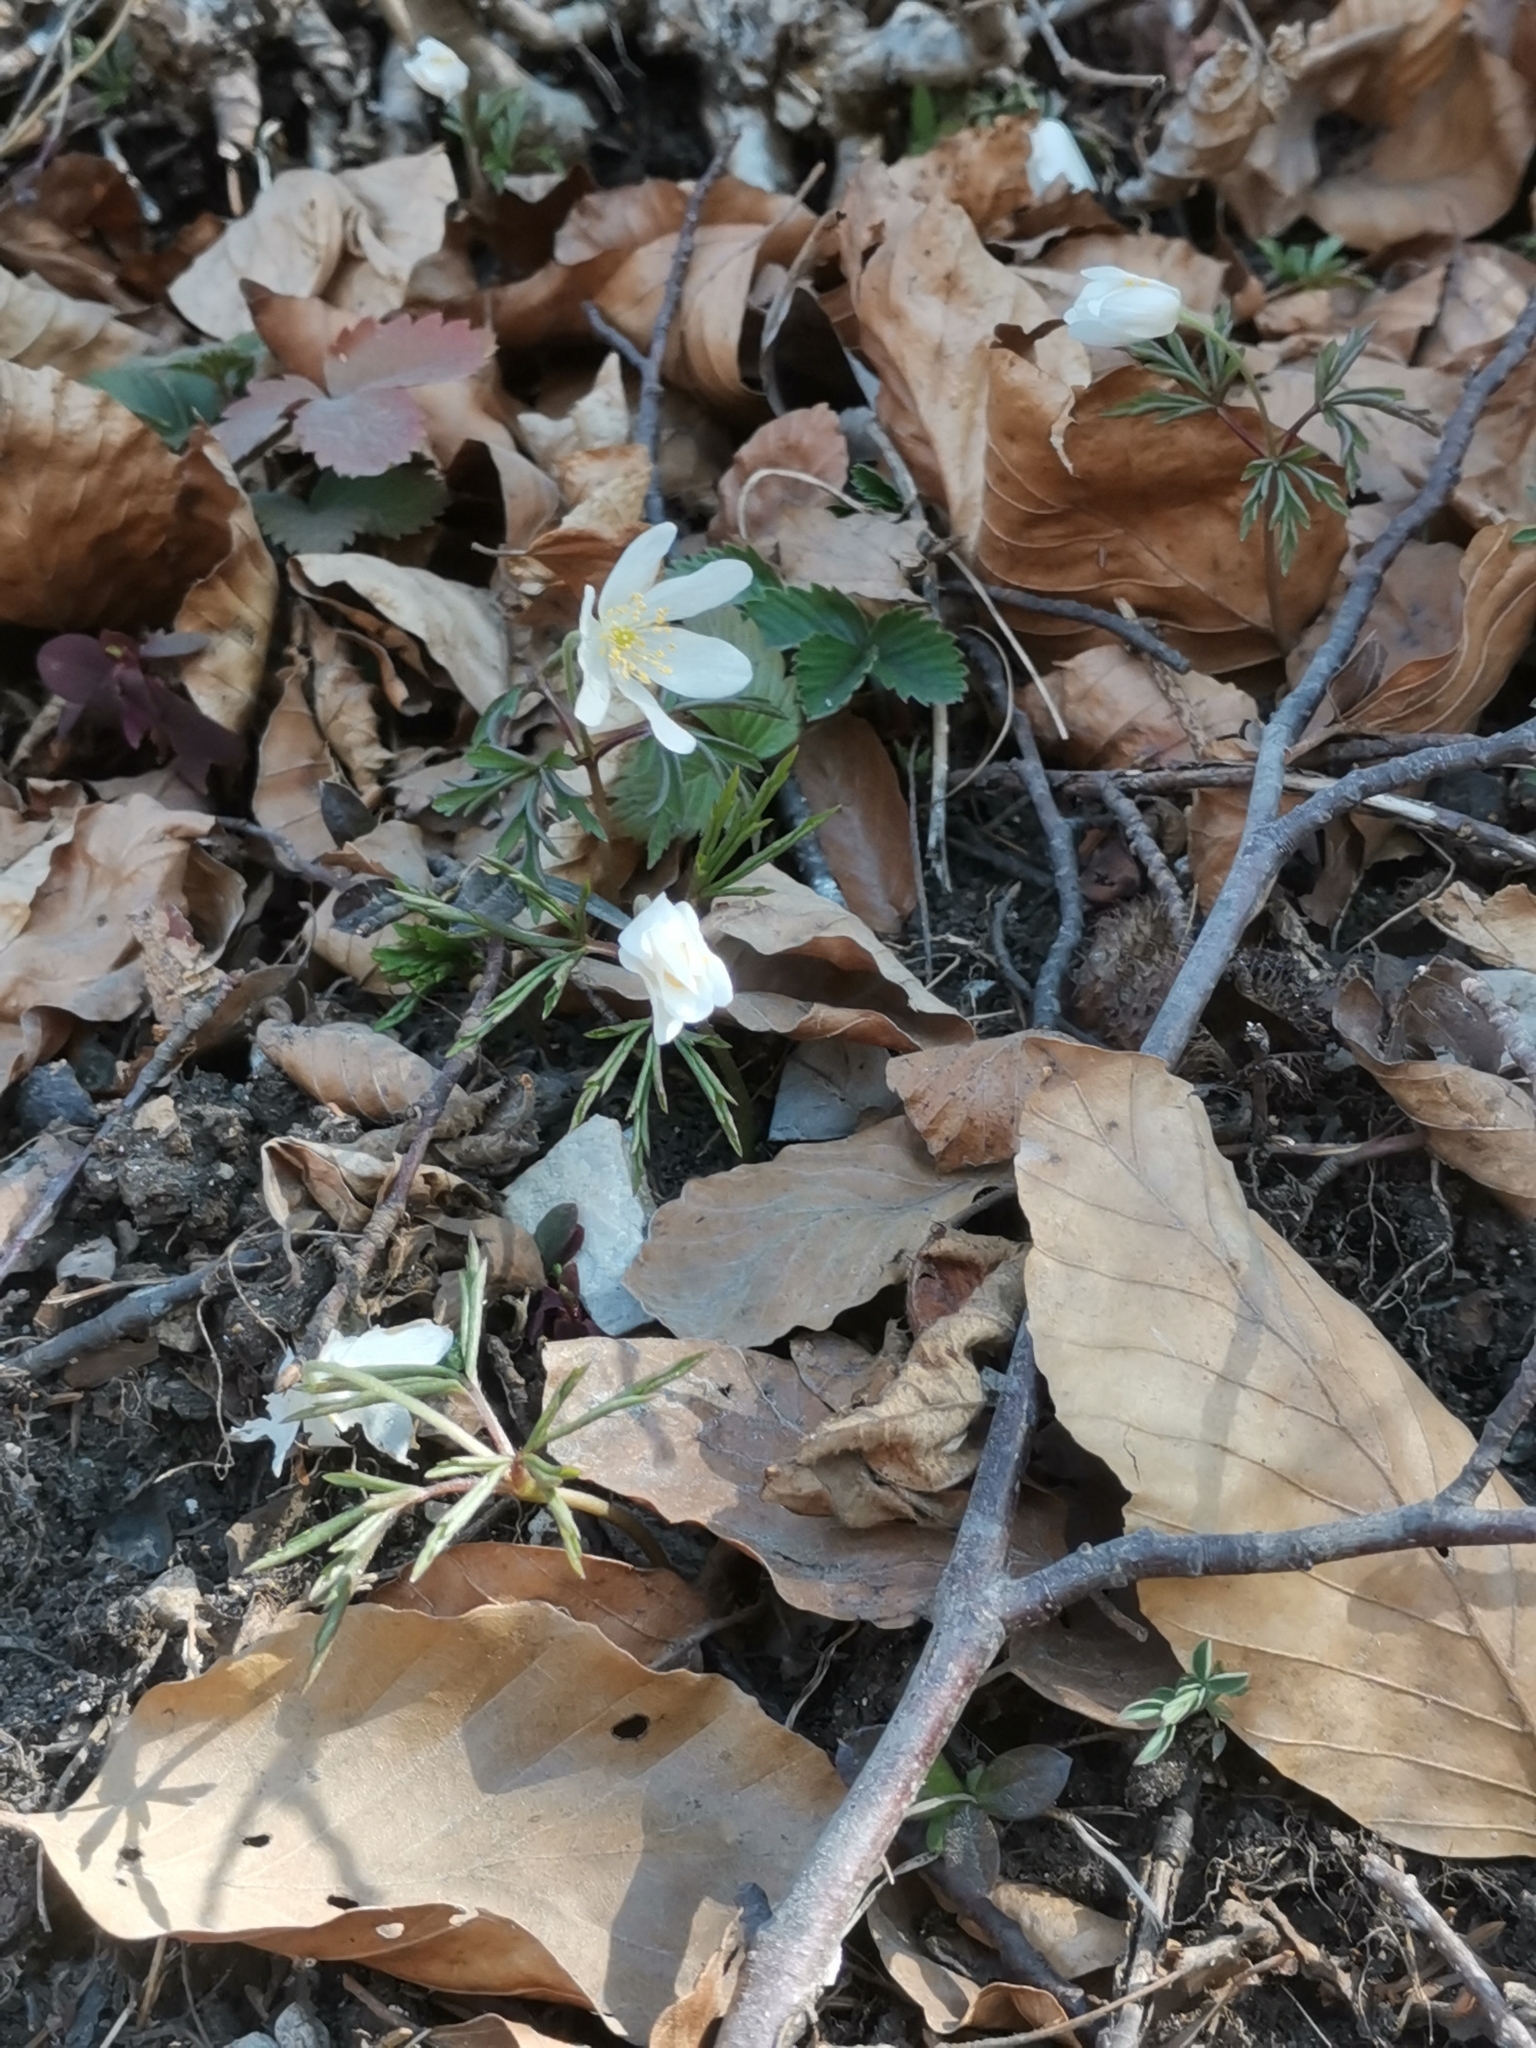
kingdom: Plantae
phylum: Tracheophyta
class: Magnoliopsida
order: Ranunculales
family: Ranunculaceae
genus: Anemone
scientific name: Anemone nemorosa
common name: Wood anemone
